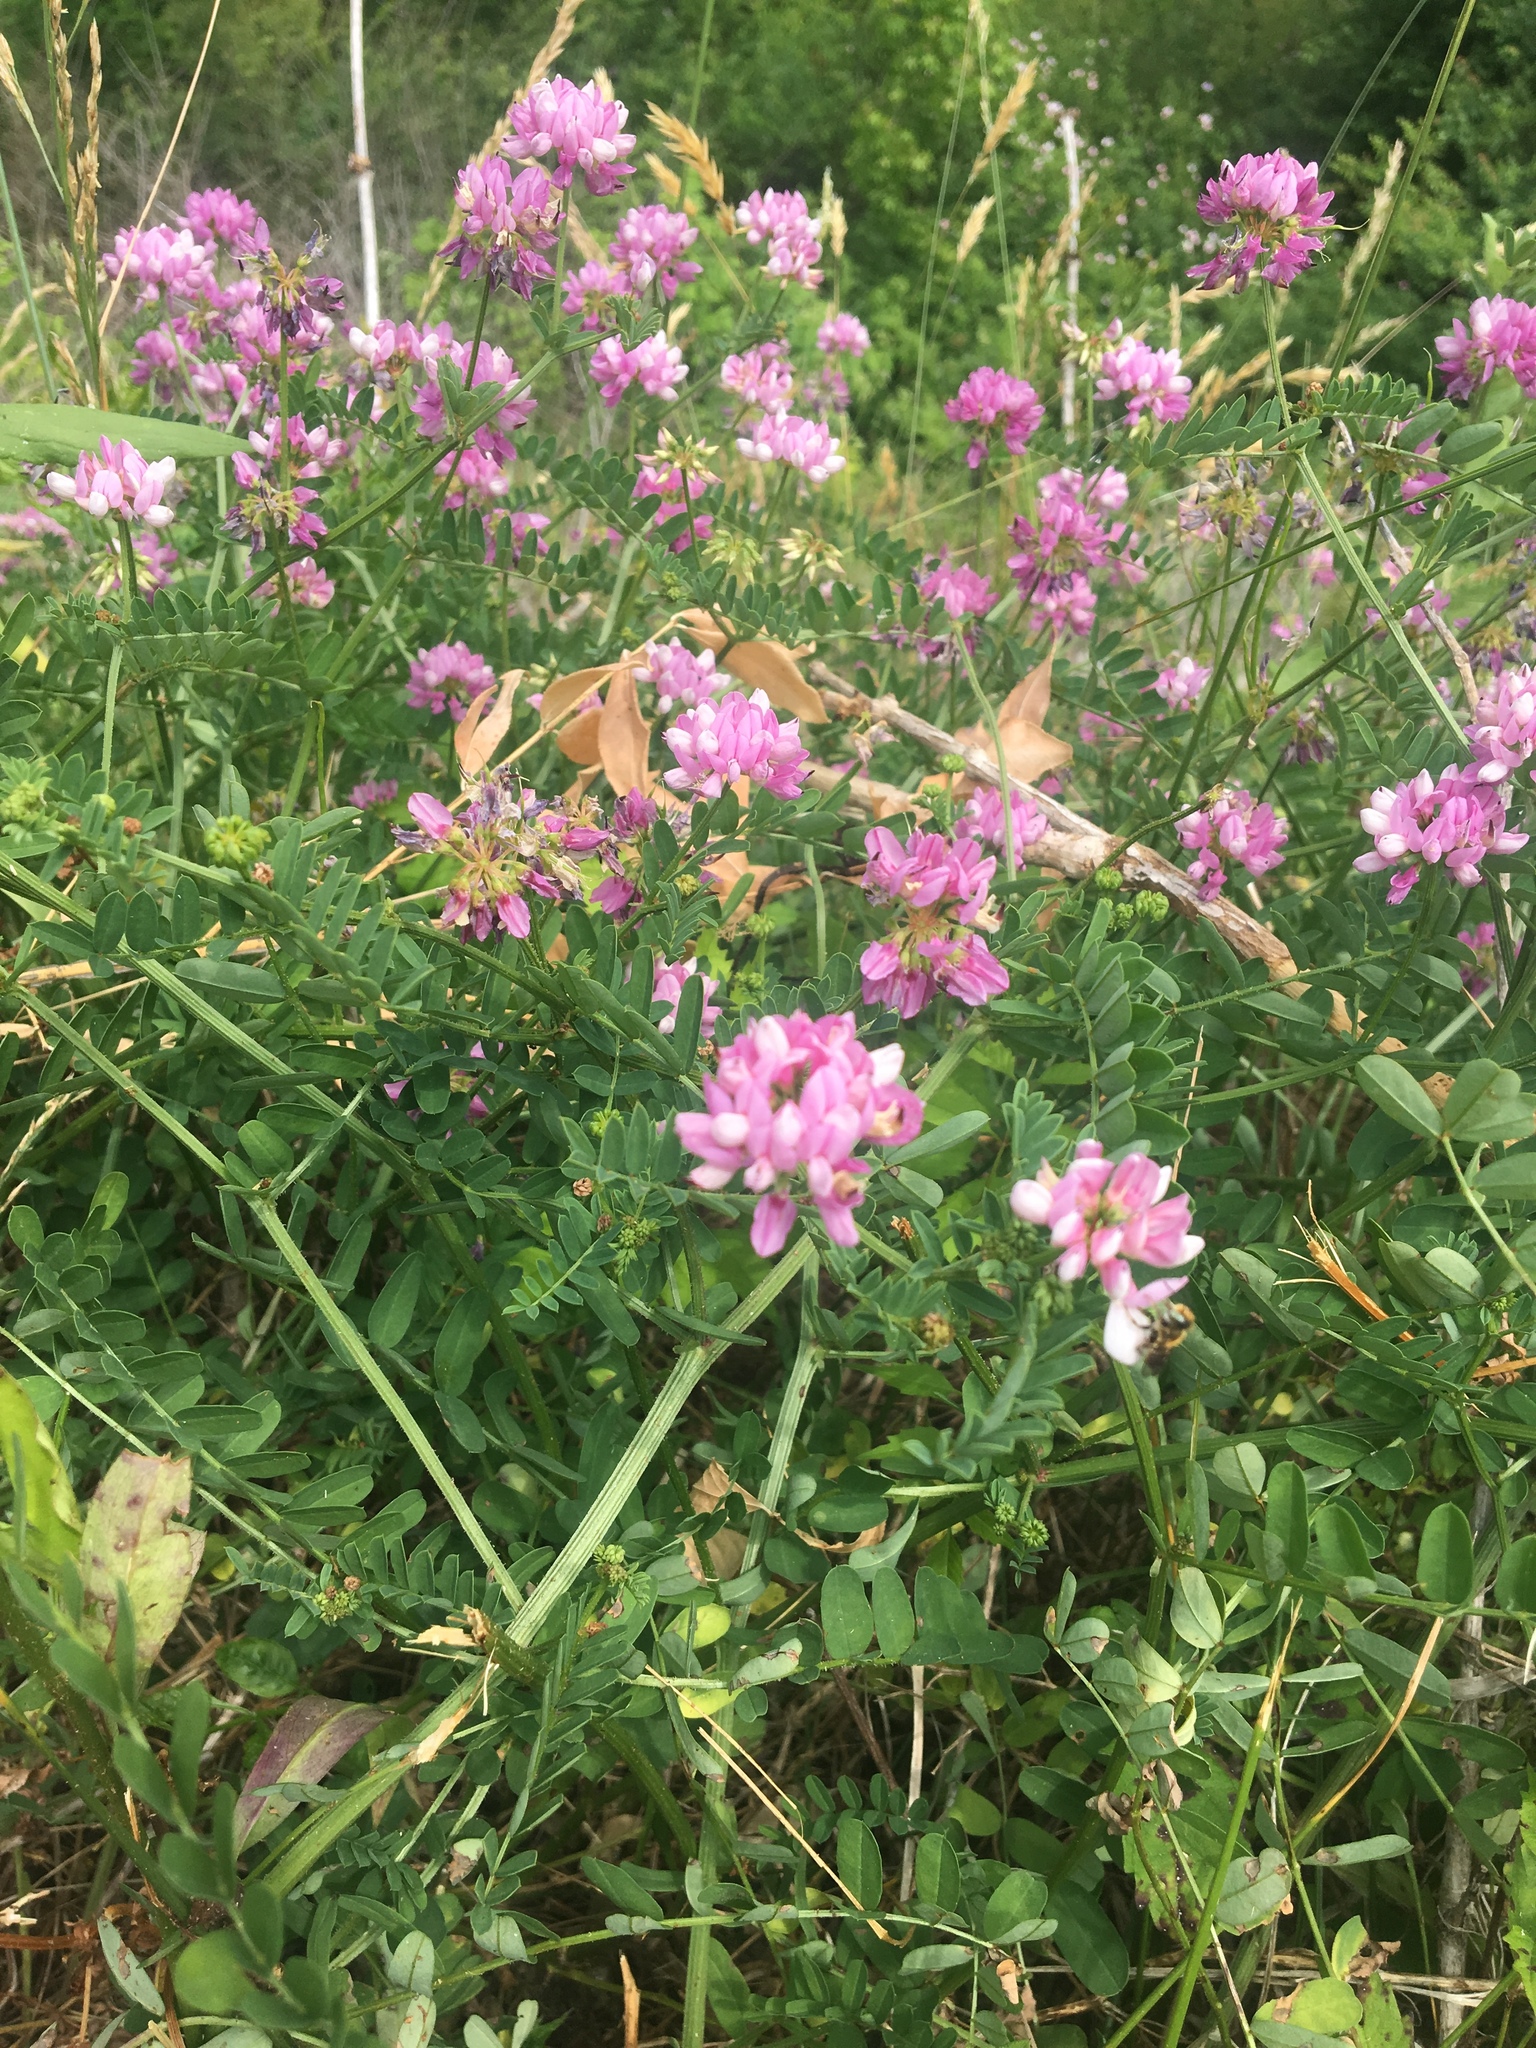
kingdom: Plantae
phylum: Tracheophyta
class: Magnoliopsida
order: Fabales
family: Fabaceae
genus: Coronilla
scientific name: Coronilla varia
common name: Crownvetch
